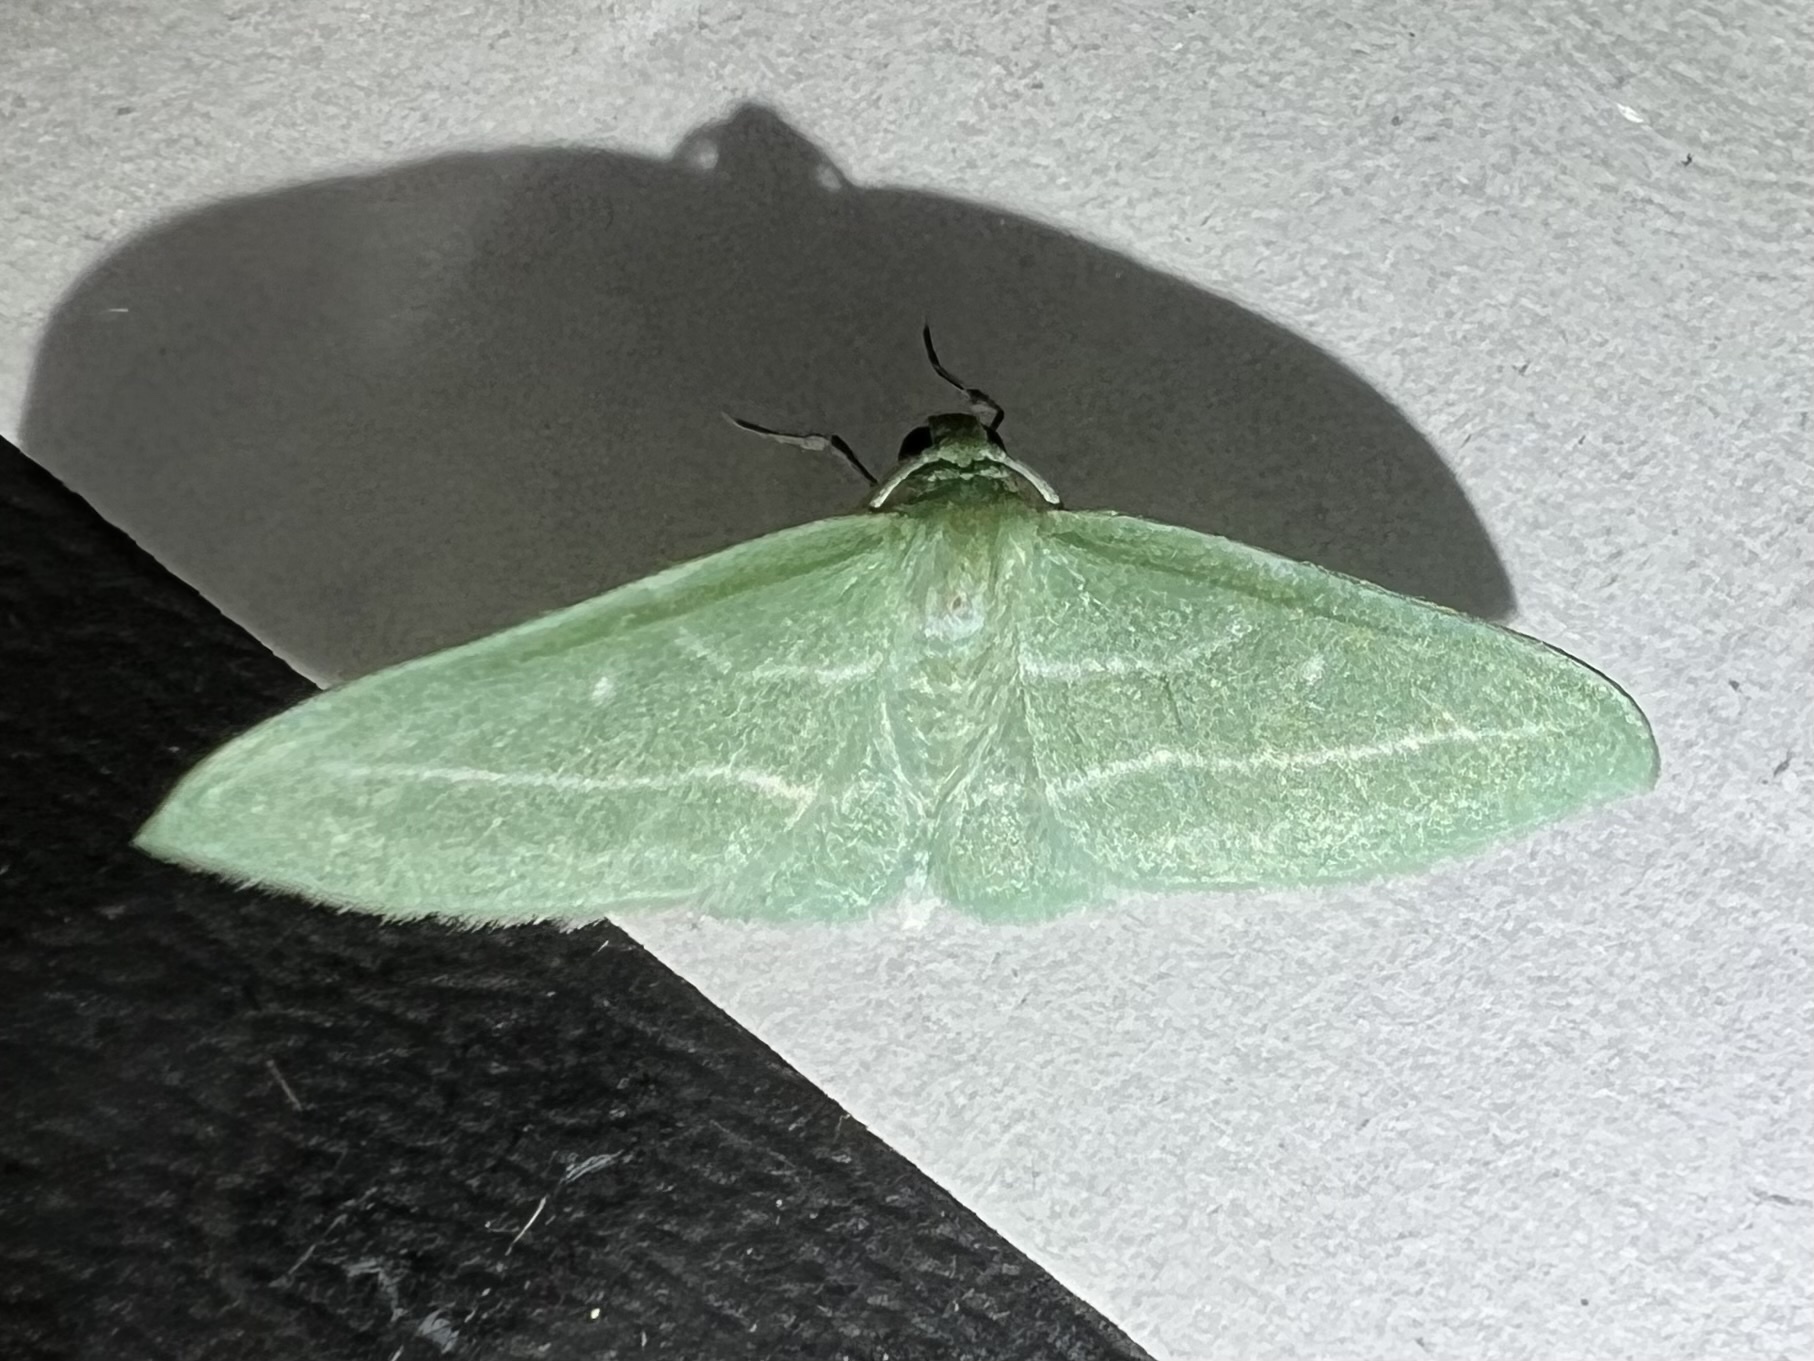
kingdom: Animalia
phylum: Arthropoda
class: Insecta
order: Lepidoptera
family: Geometridae
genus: Dyspteris
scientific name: Dyspteris abortivaria
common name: Bad-wing
